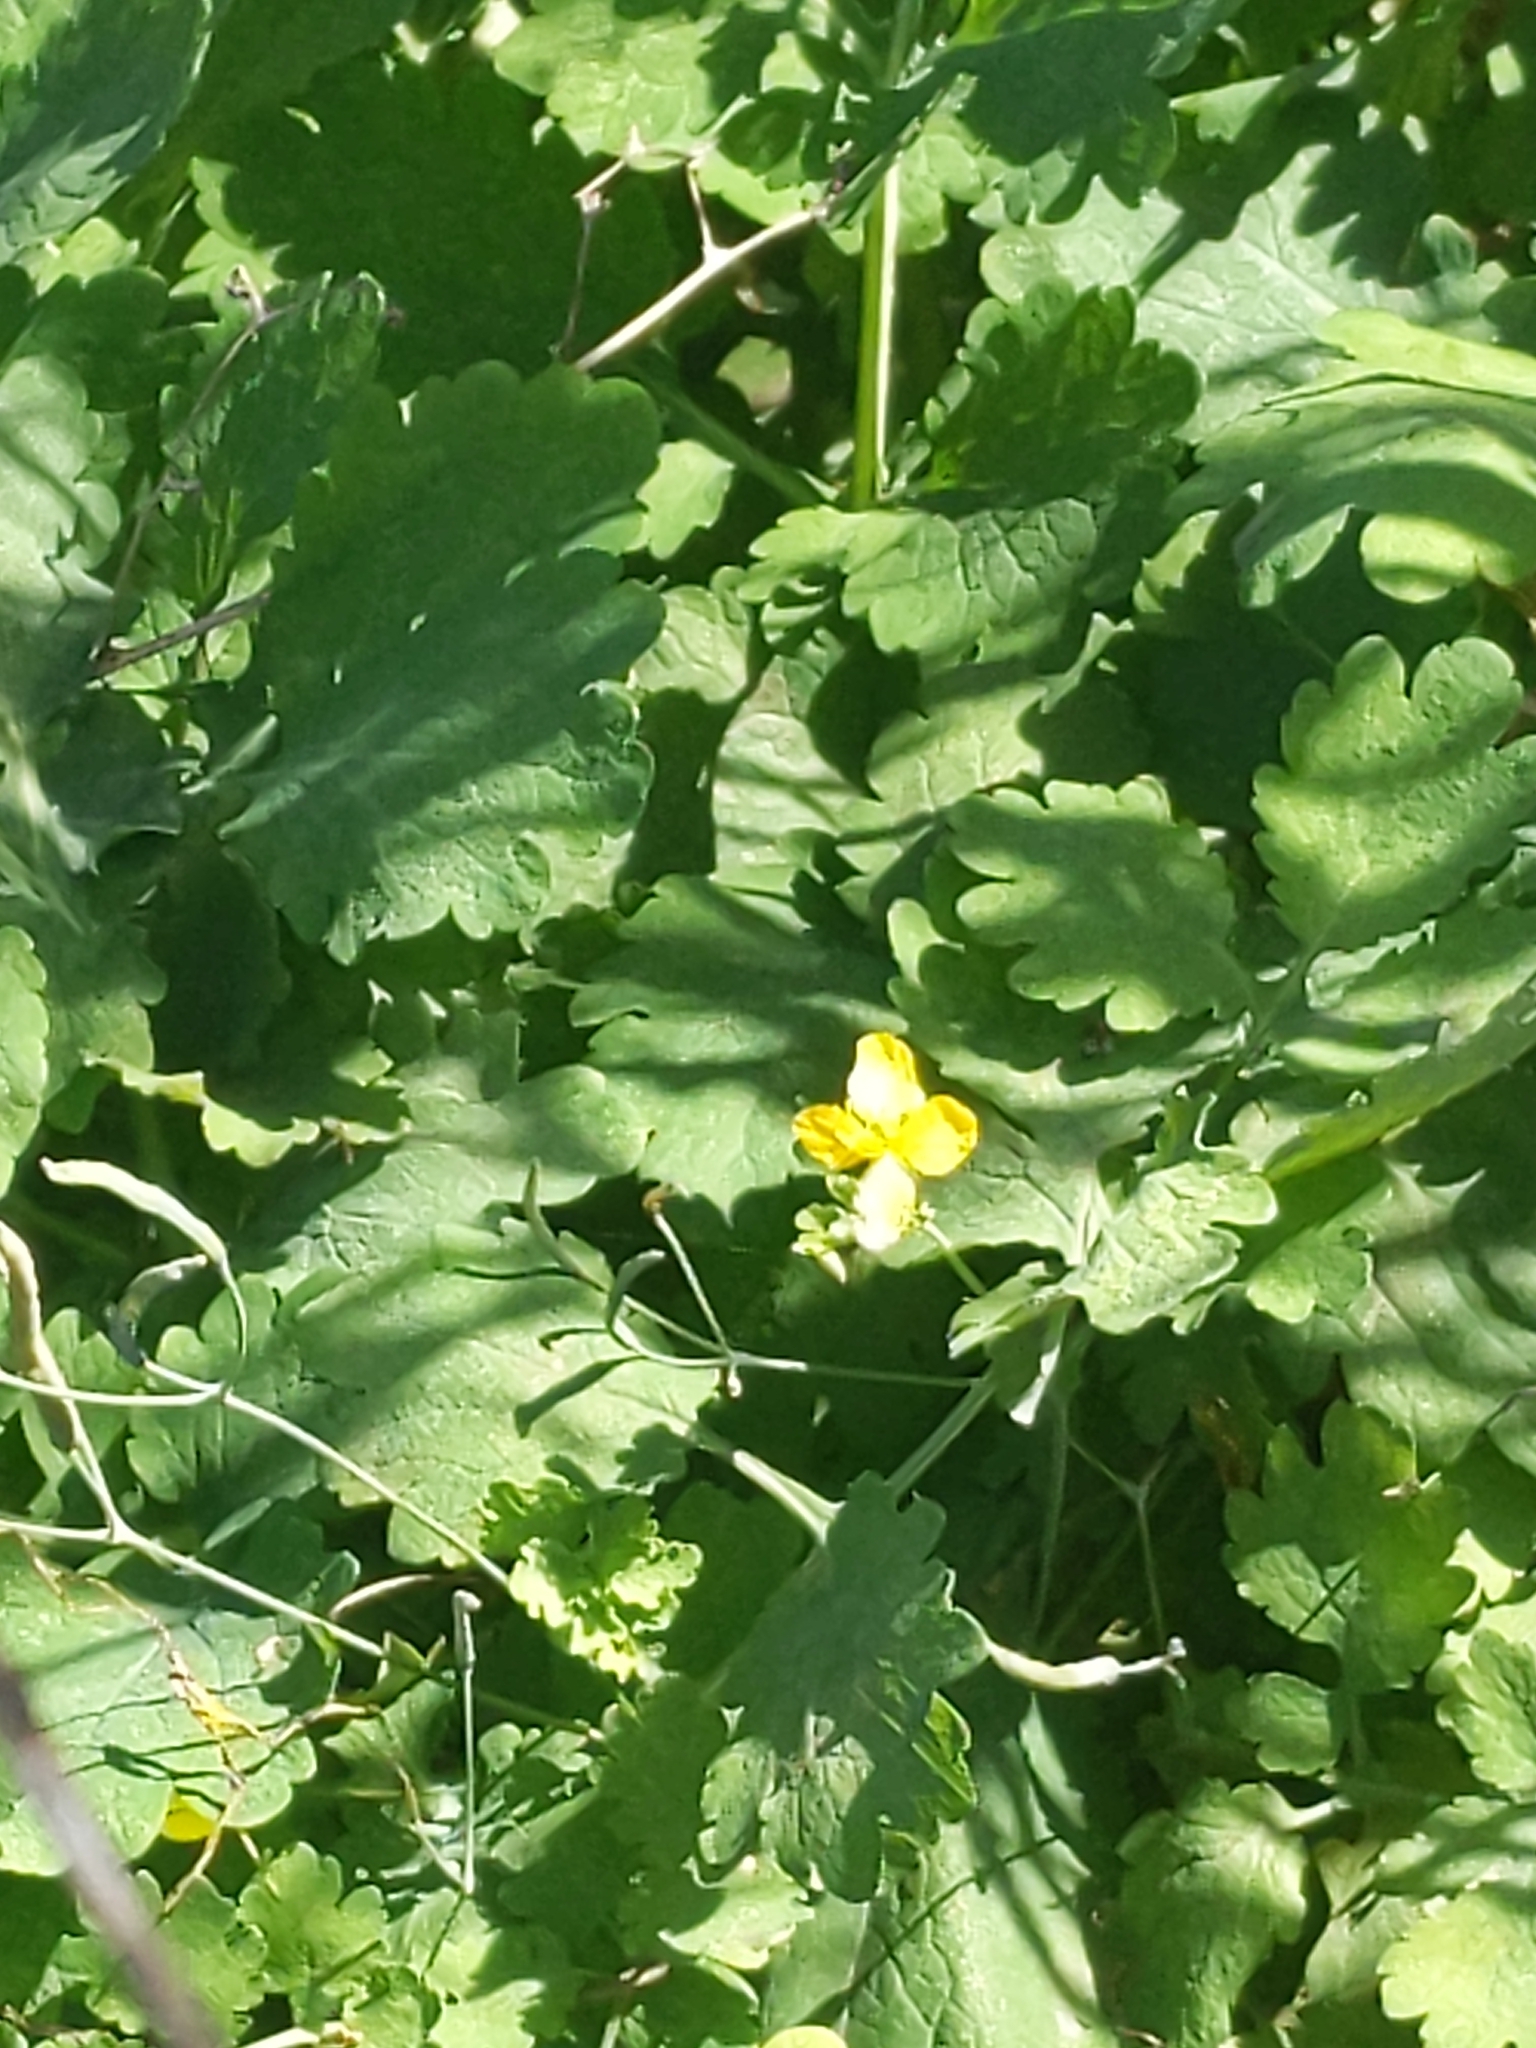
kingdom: Plantae
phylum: Tracheophyta
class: Magnoliopsida
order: Ranunculales
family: Papaveraceae
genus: Chelidonium
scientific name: Chelidonium majus
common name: Greater celandine
